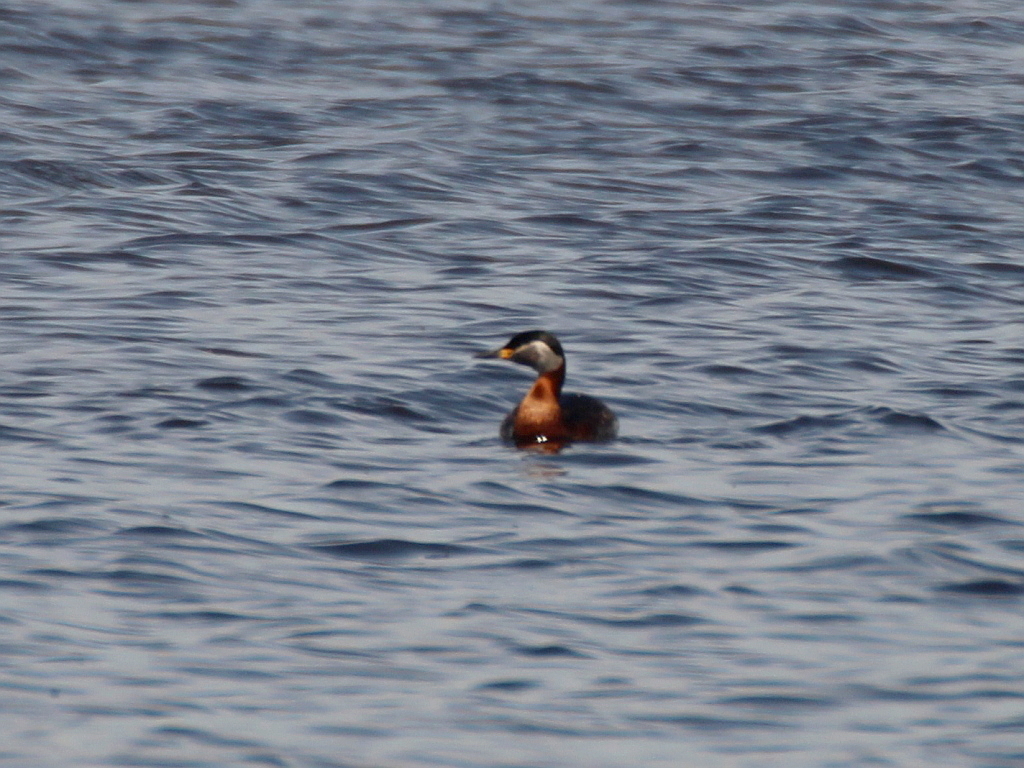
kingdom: Animalia
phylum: Chordata
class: Aves
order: Podicipediformes
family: Podicipedidae
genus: Podiceps
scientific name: Podiceps grisegena
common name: Red-necked grebe
